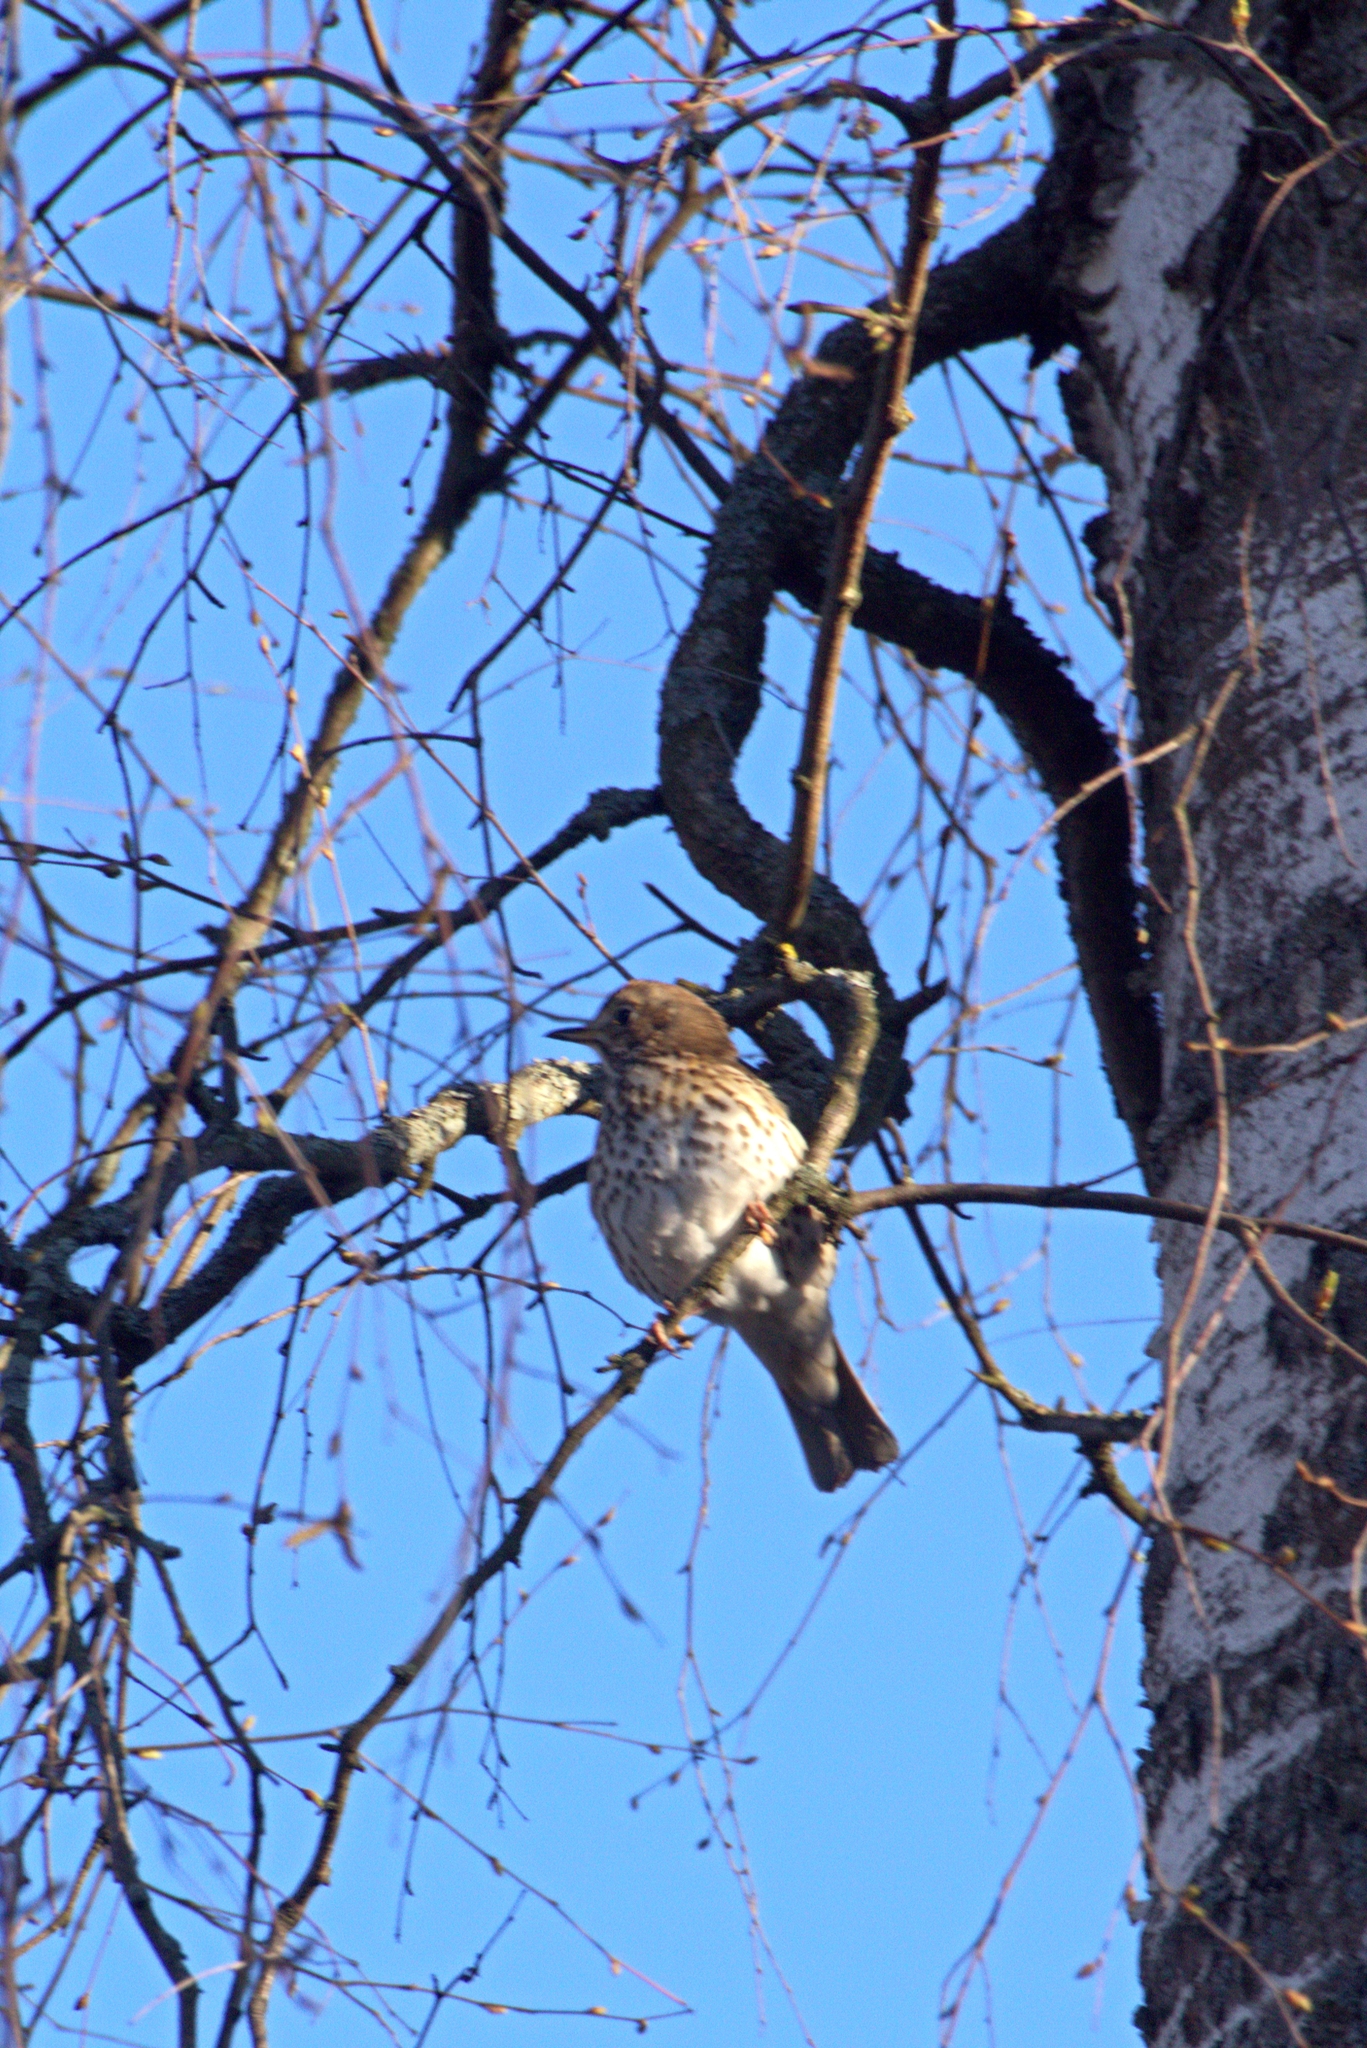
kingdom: Animalia
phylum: Chordata
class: Aves
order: Passeriformes
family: Turdidae
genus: Turdus
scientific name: Turdus philomelos
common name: Song thrush
